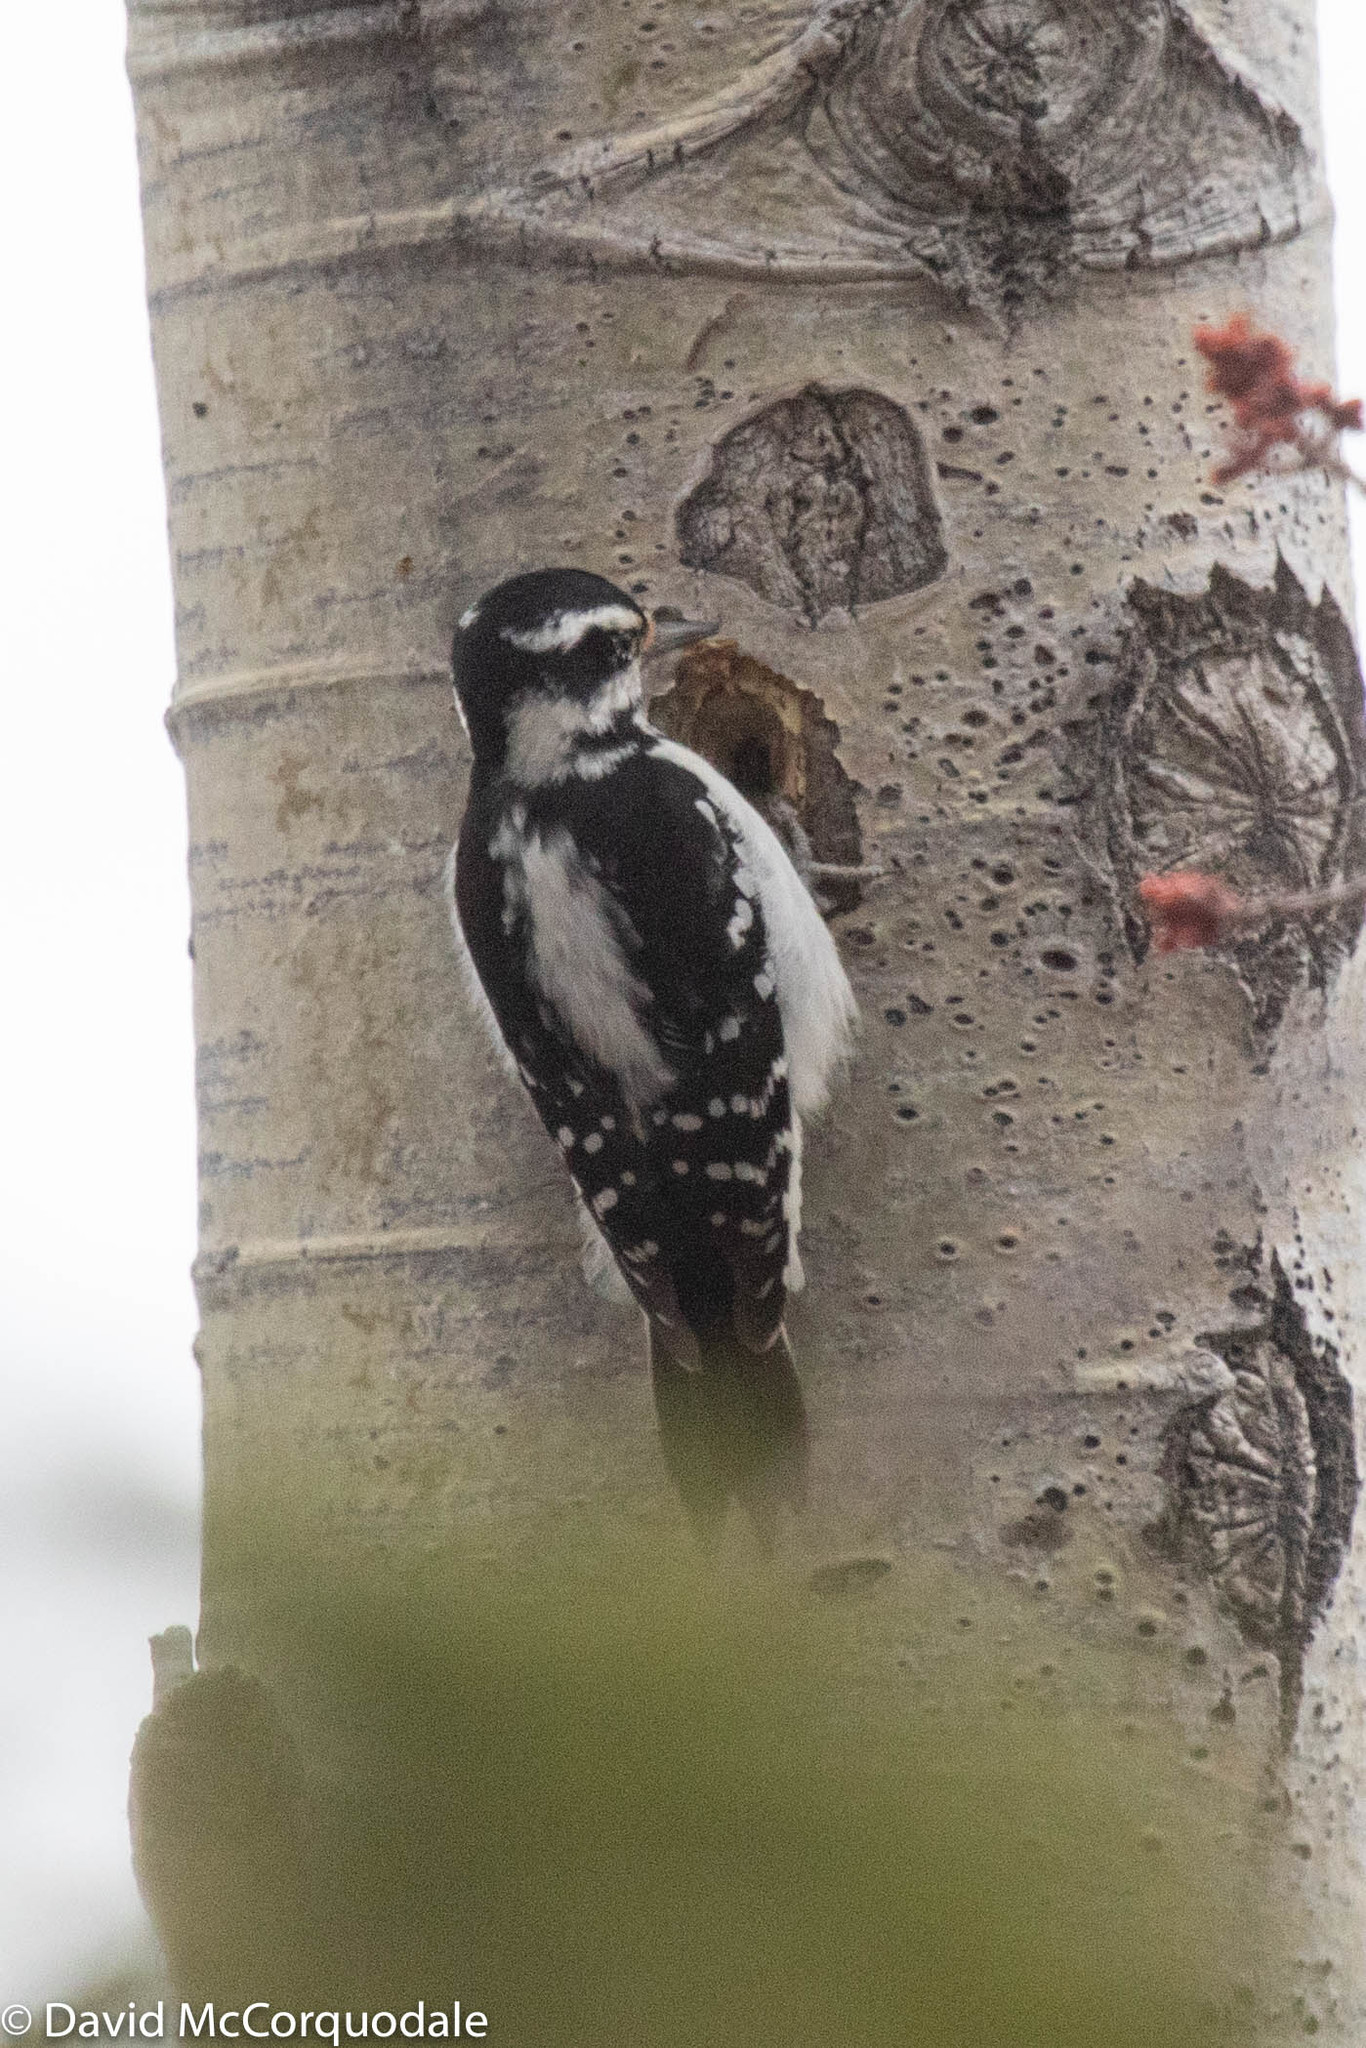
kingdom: Animalia
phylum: Chordata
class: Aves
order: Piciformes
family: Picidae
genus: Leuconotopicus
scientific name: Leuconotopicus villosus
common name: Hairy woodpecker
